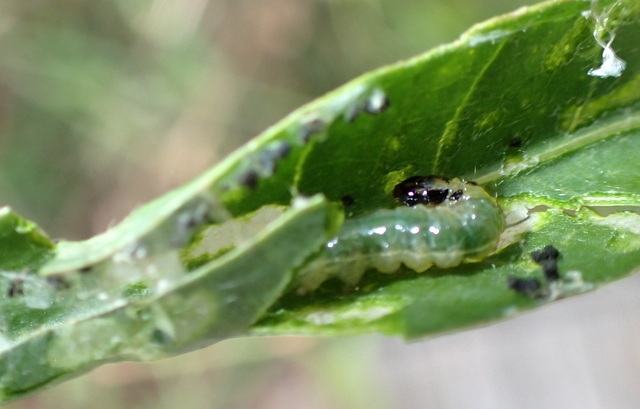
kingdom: Animalia
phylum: Arthropoda
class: Insecta
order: Lepidoptera
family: Crambidae
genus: Herpetogramma
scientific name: Herpetogramma bipunctalis
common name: Southern beet webworm
